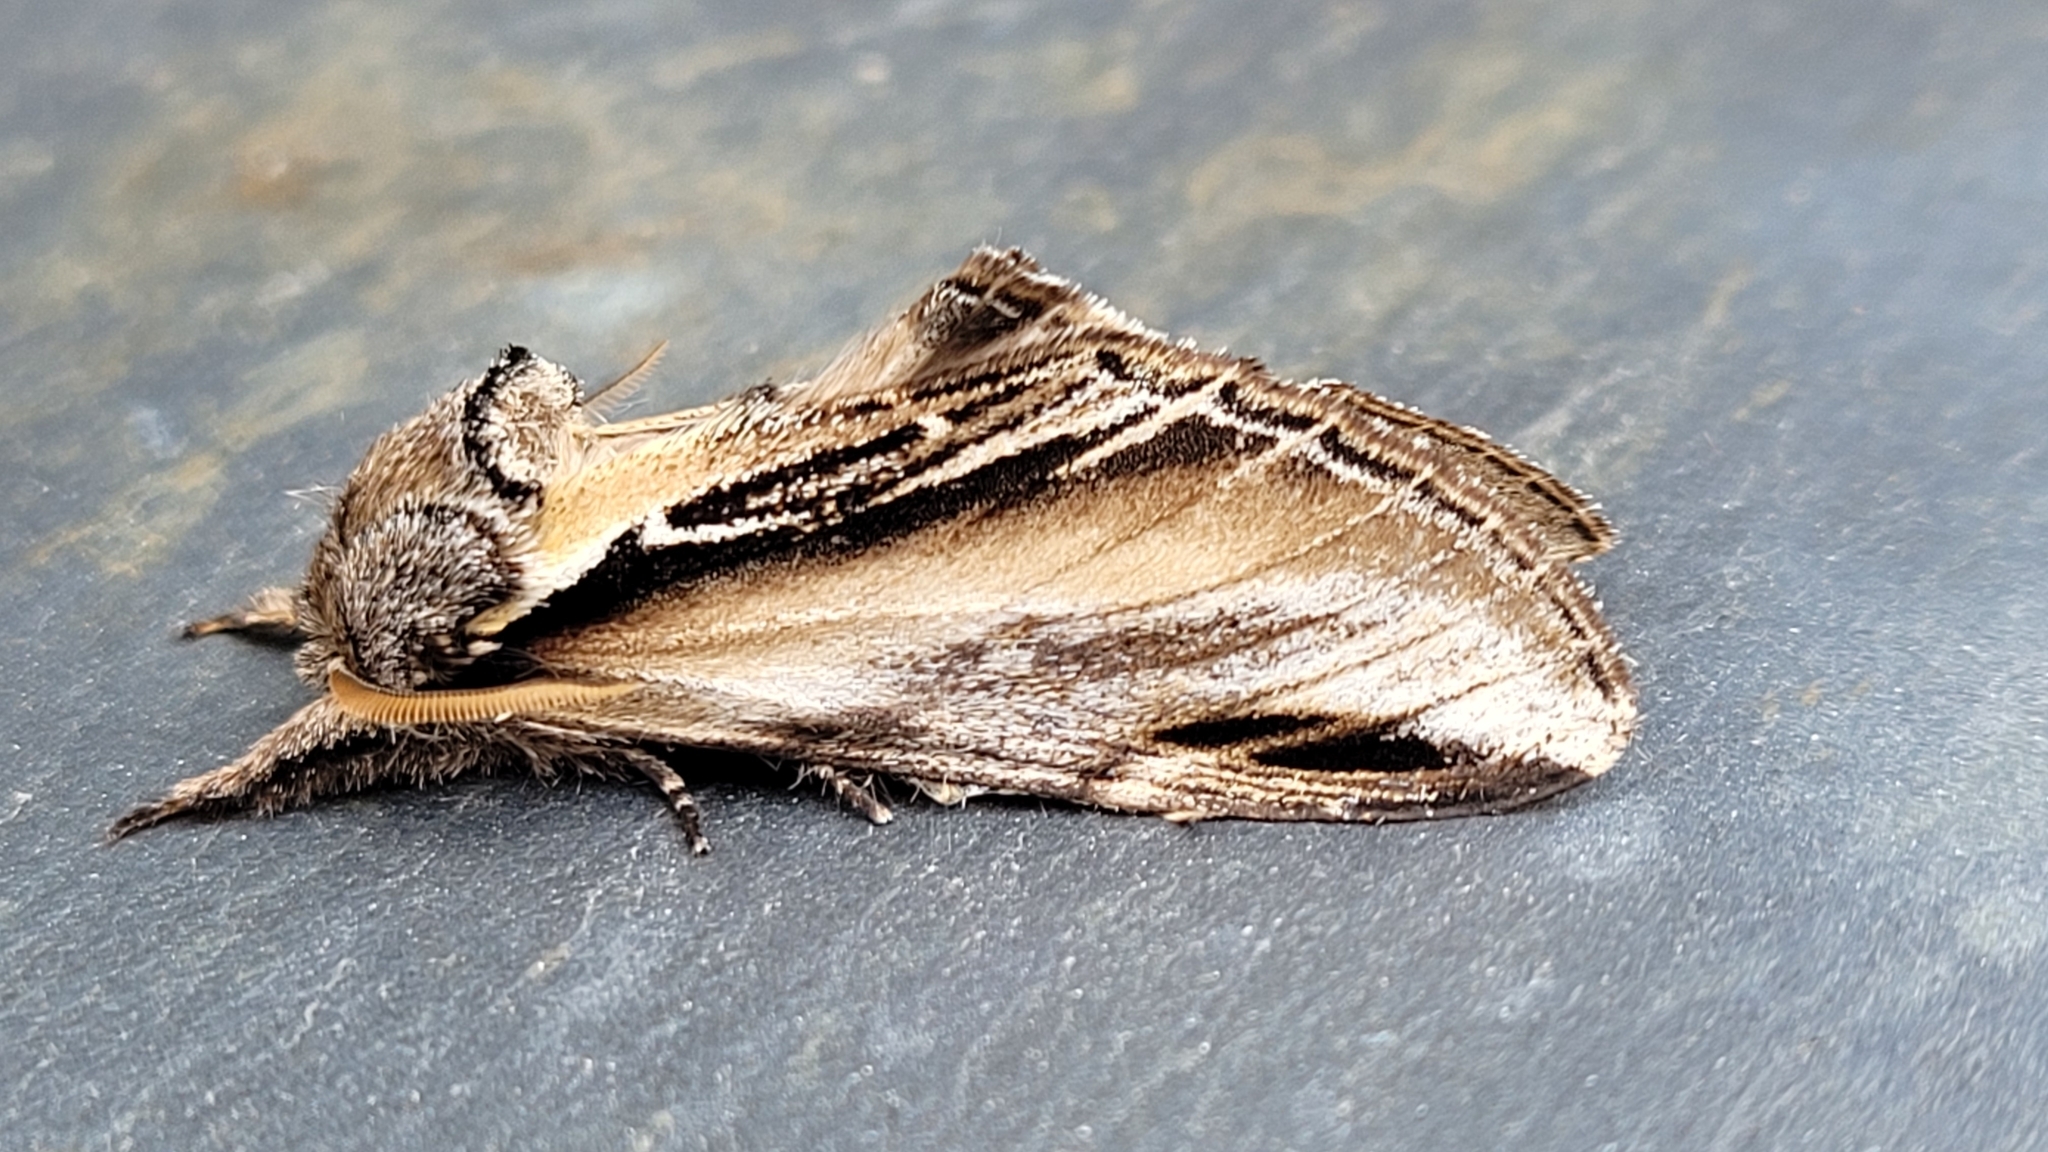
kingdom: Animalia
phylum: Arthropoda
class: Insecta
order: Lepidoptera
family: Notodontidae
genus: Pheosia
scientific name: Pheosia tremula
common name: Swallow prominent
